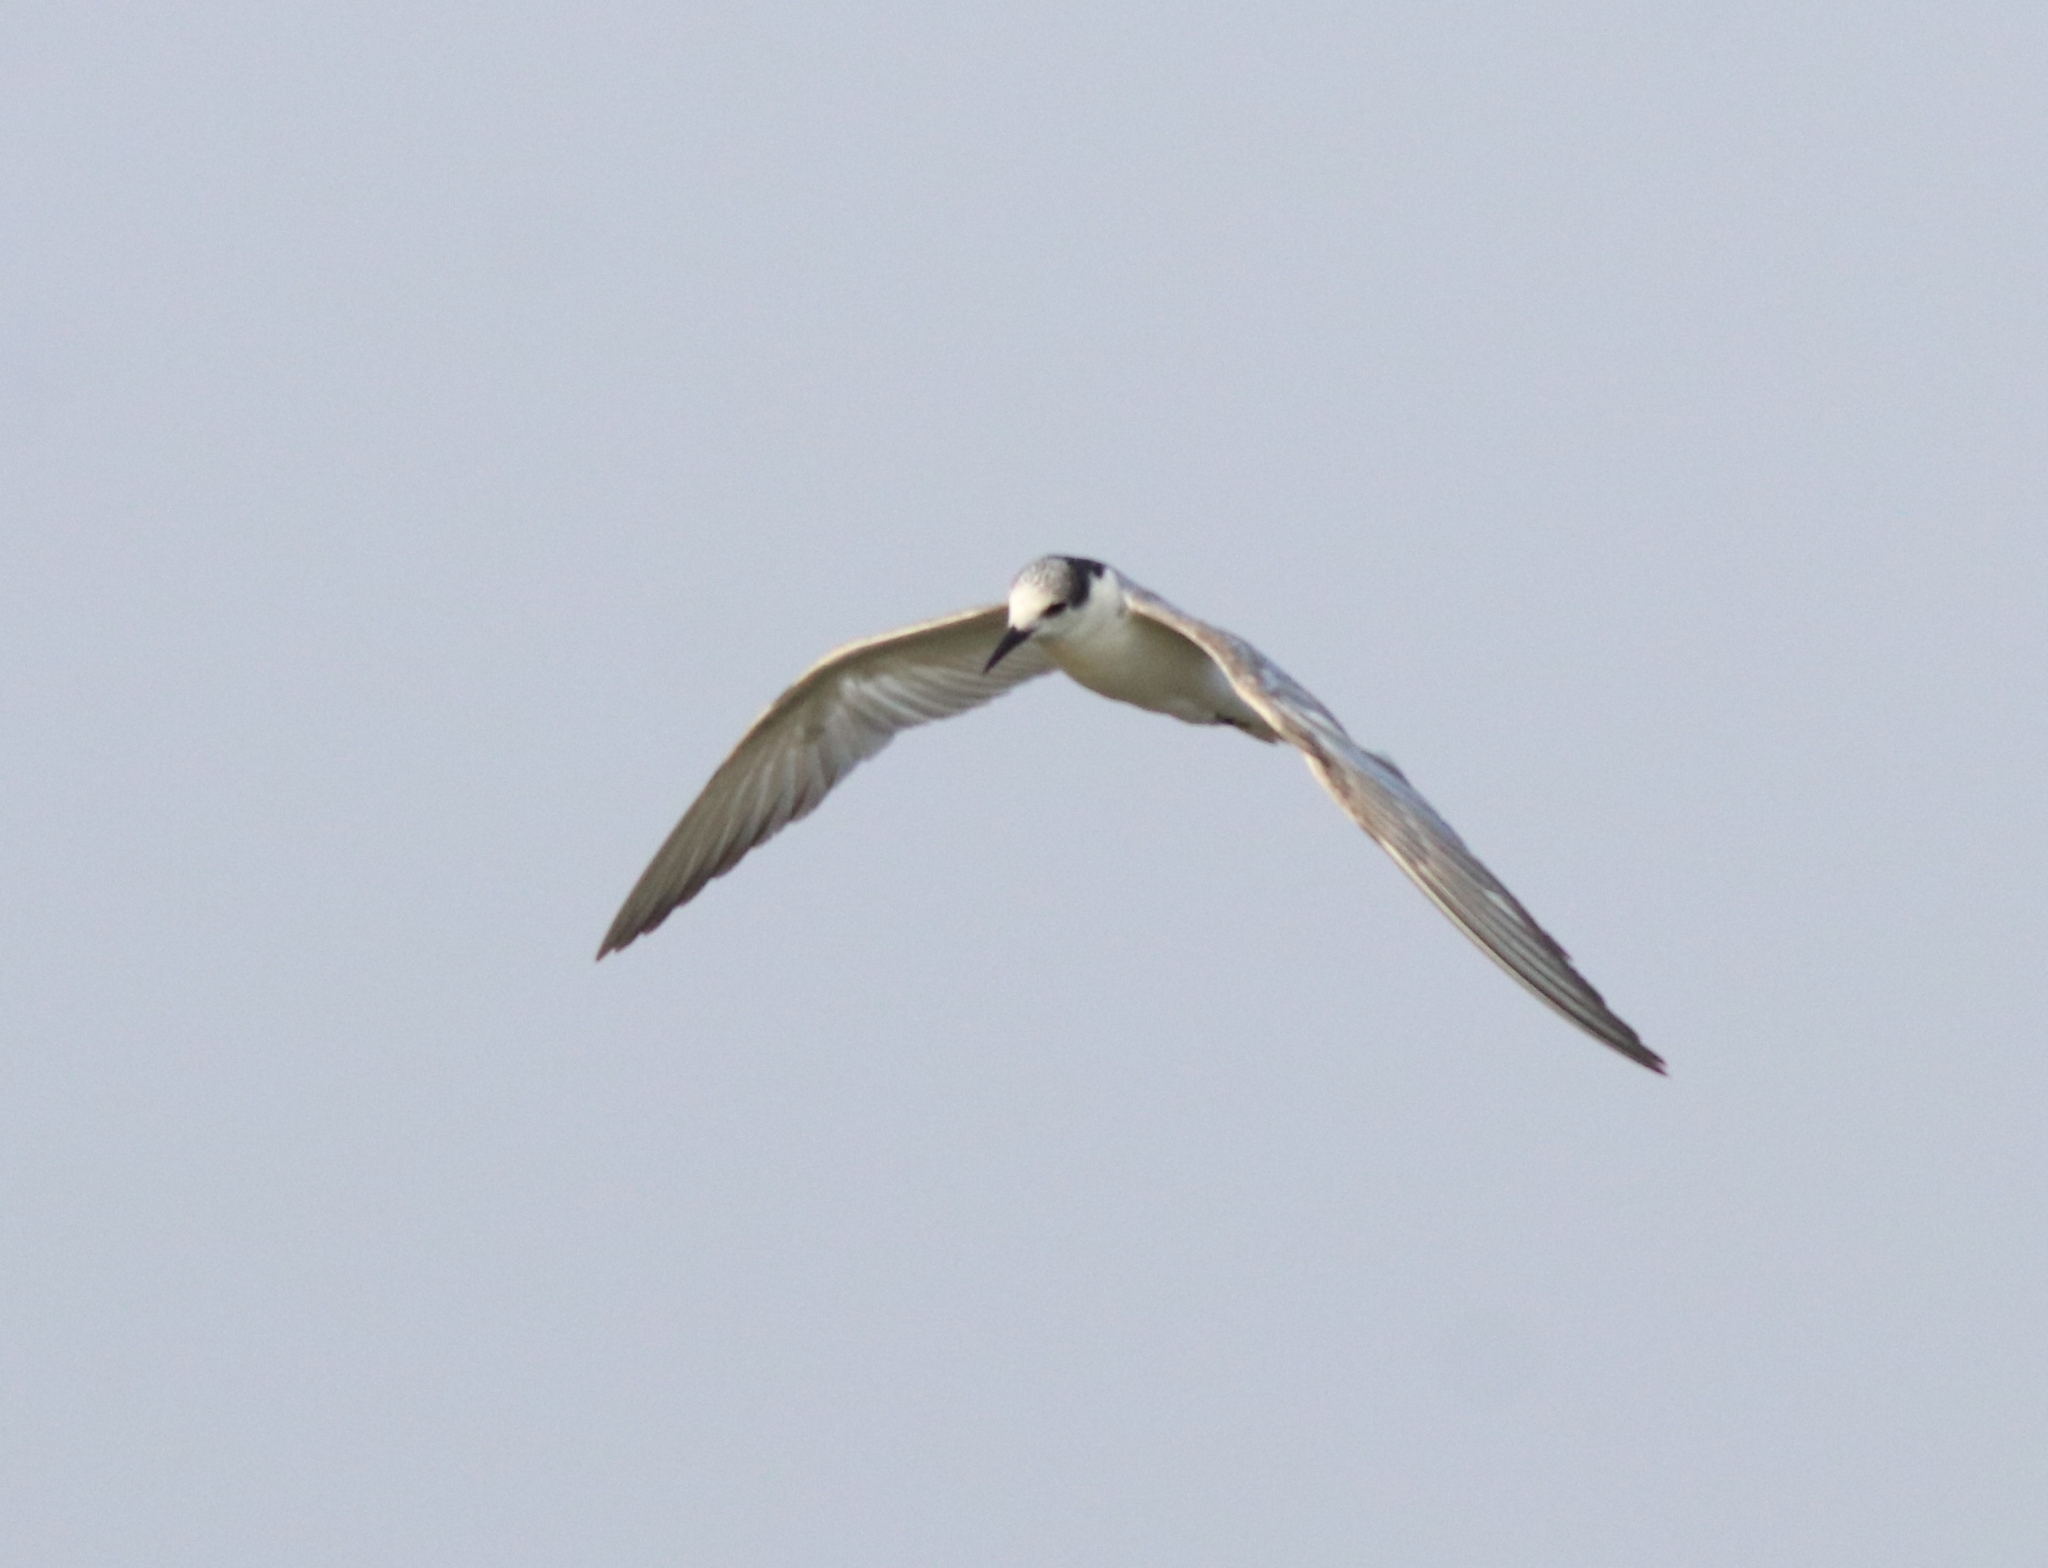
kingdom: Animalia
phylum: Chordata
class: Aves
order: Charadriiformes
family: Laridae
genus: Chlidonias
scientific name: Chlidonias hybrida
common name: Whiskered tern
